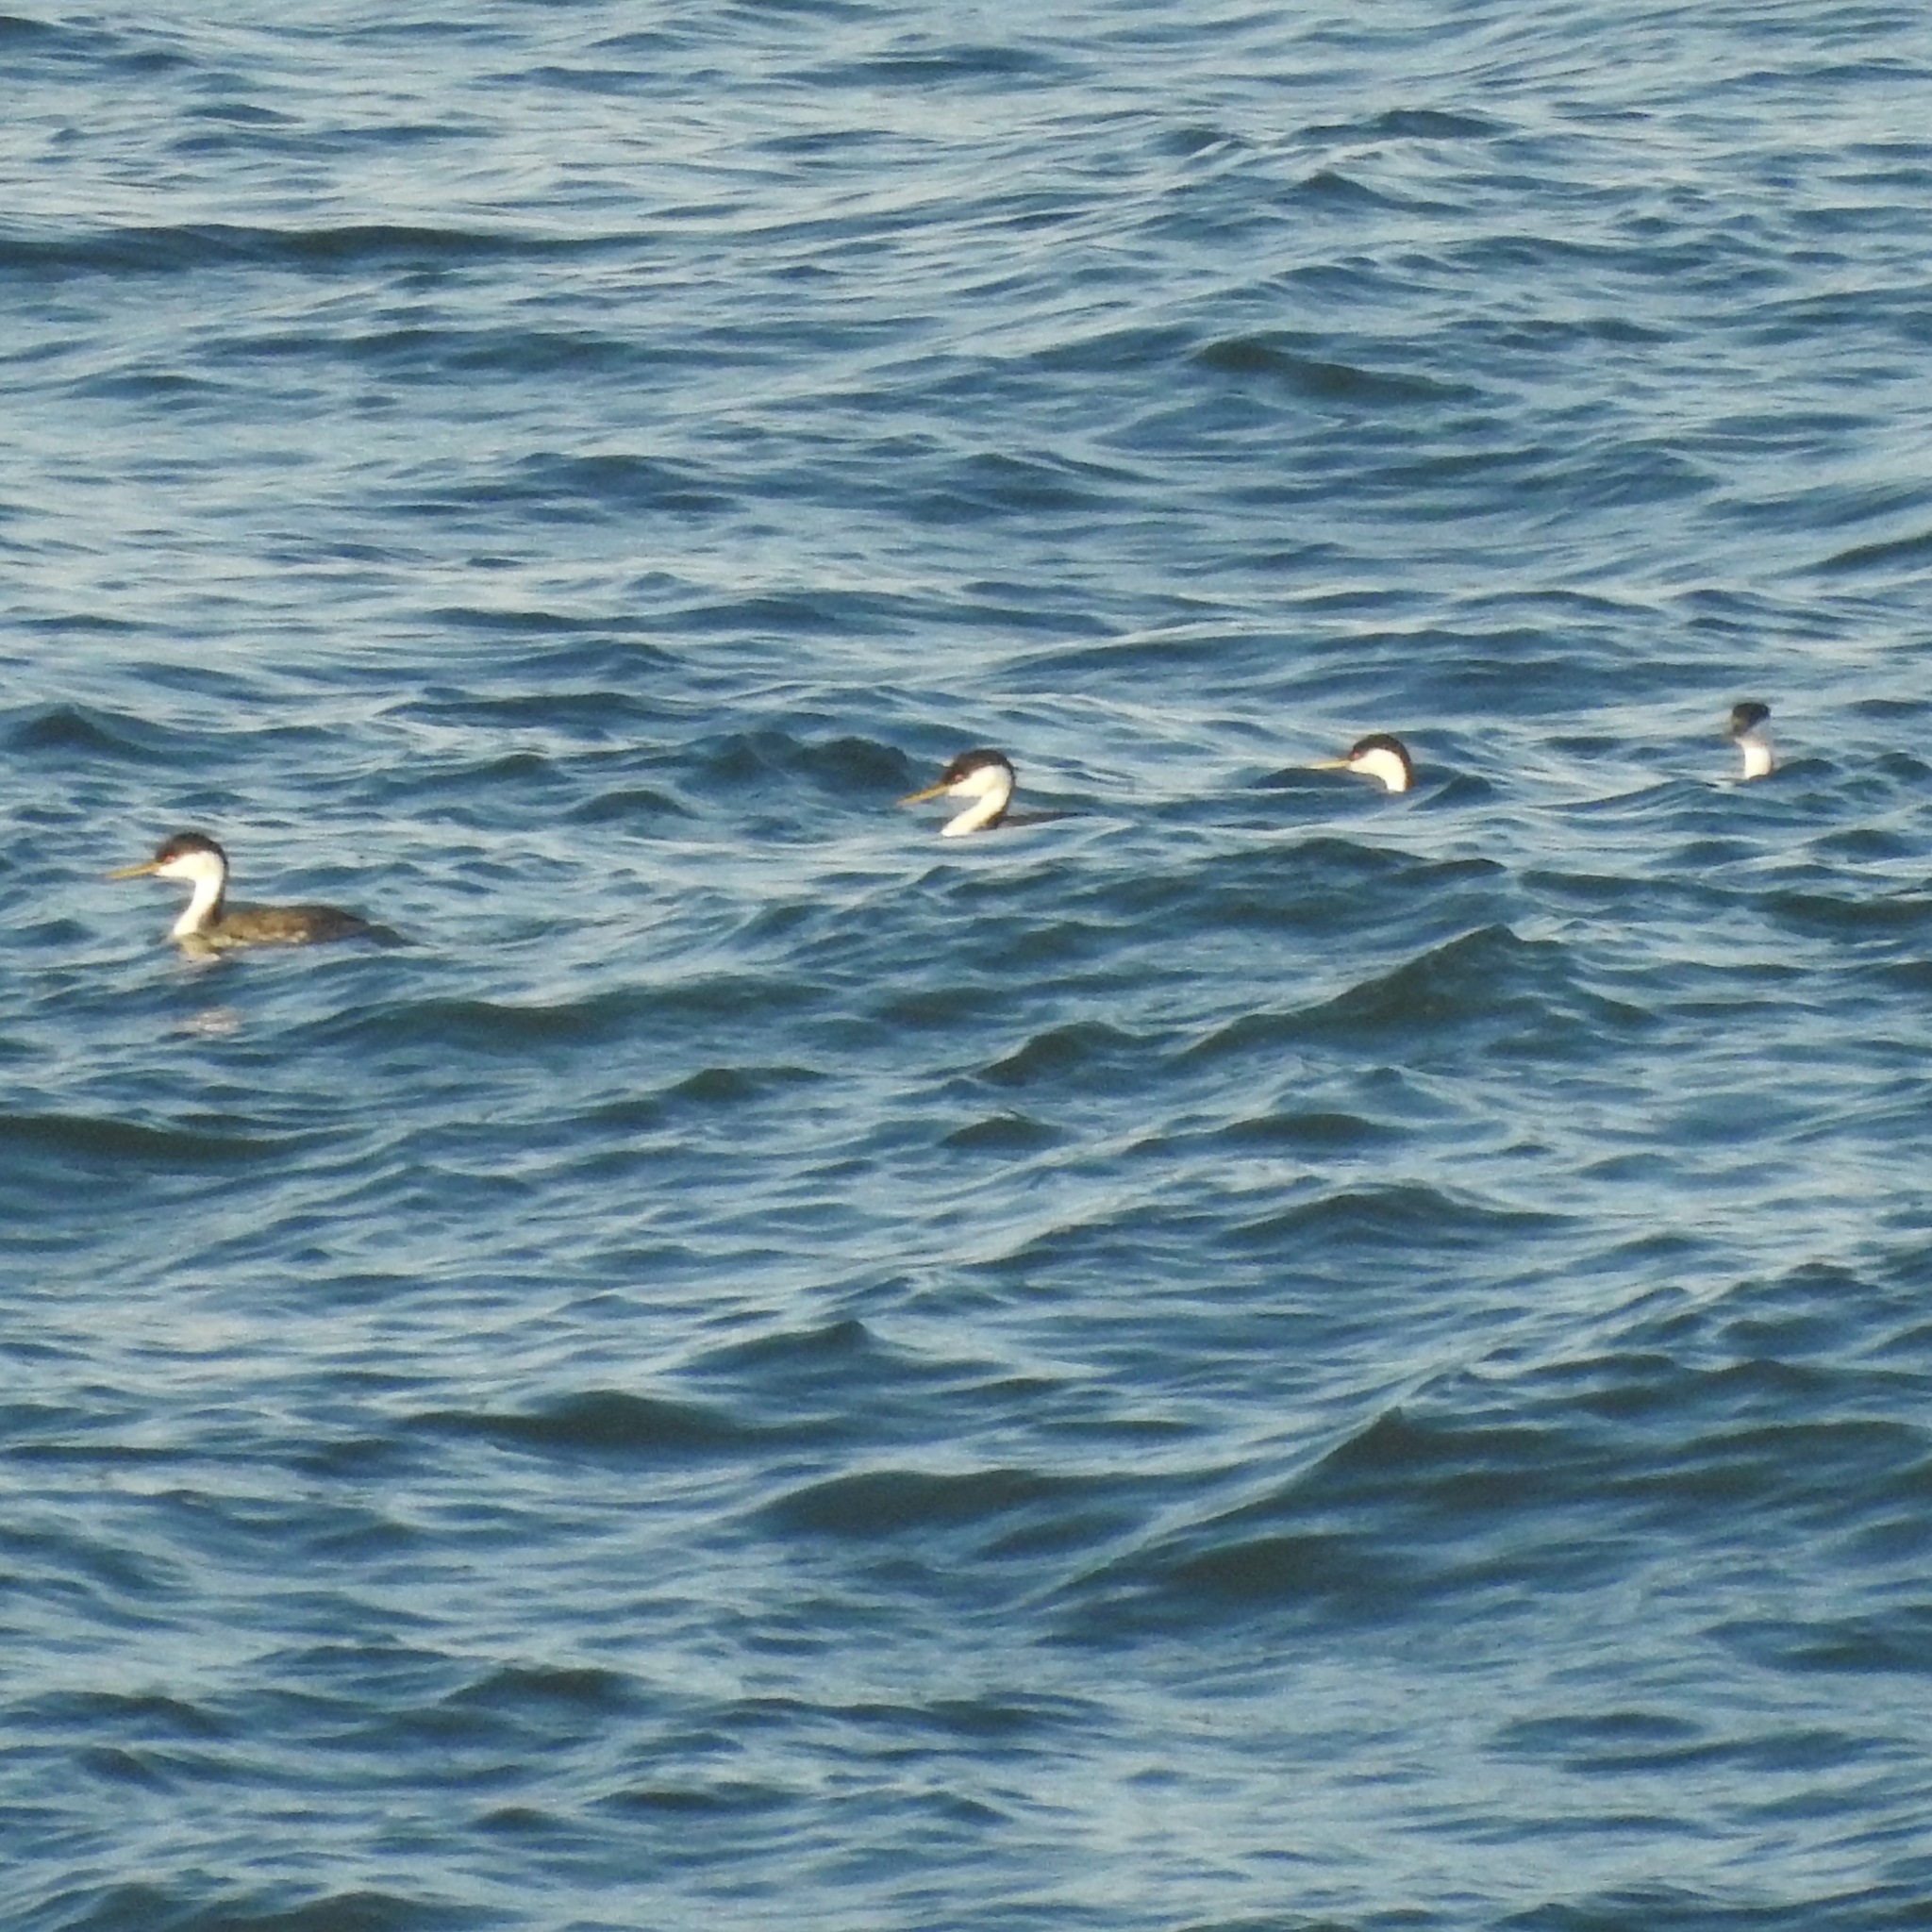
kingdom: Animalia
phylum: Chordata
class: Aves
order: Podicipediformes
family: Podicipedidae
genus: Aechmophorus
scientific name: Aechmophorus occidentalis
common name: Western grebe
